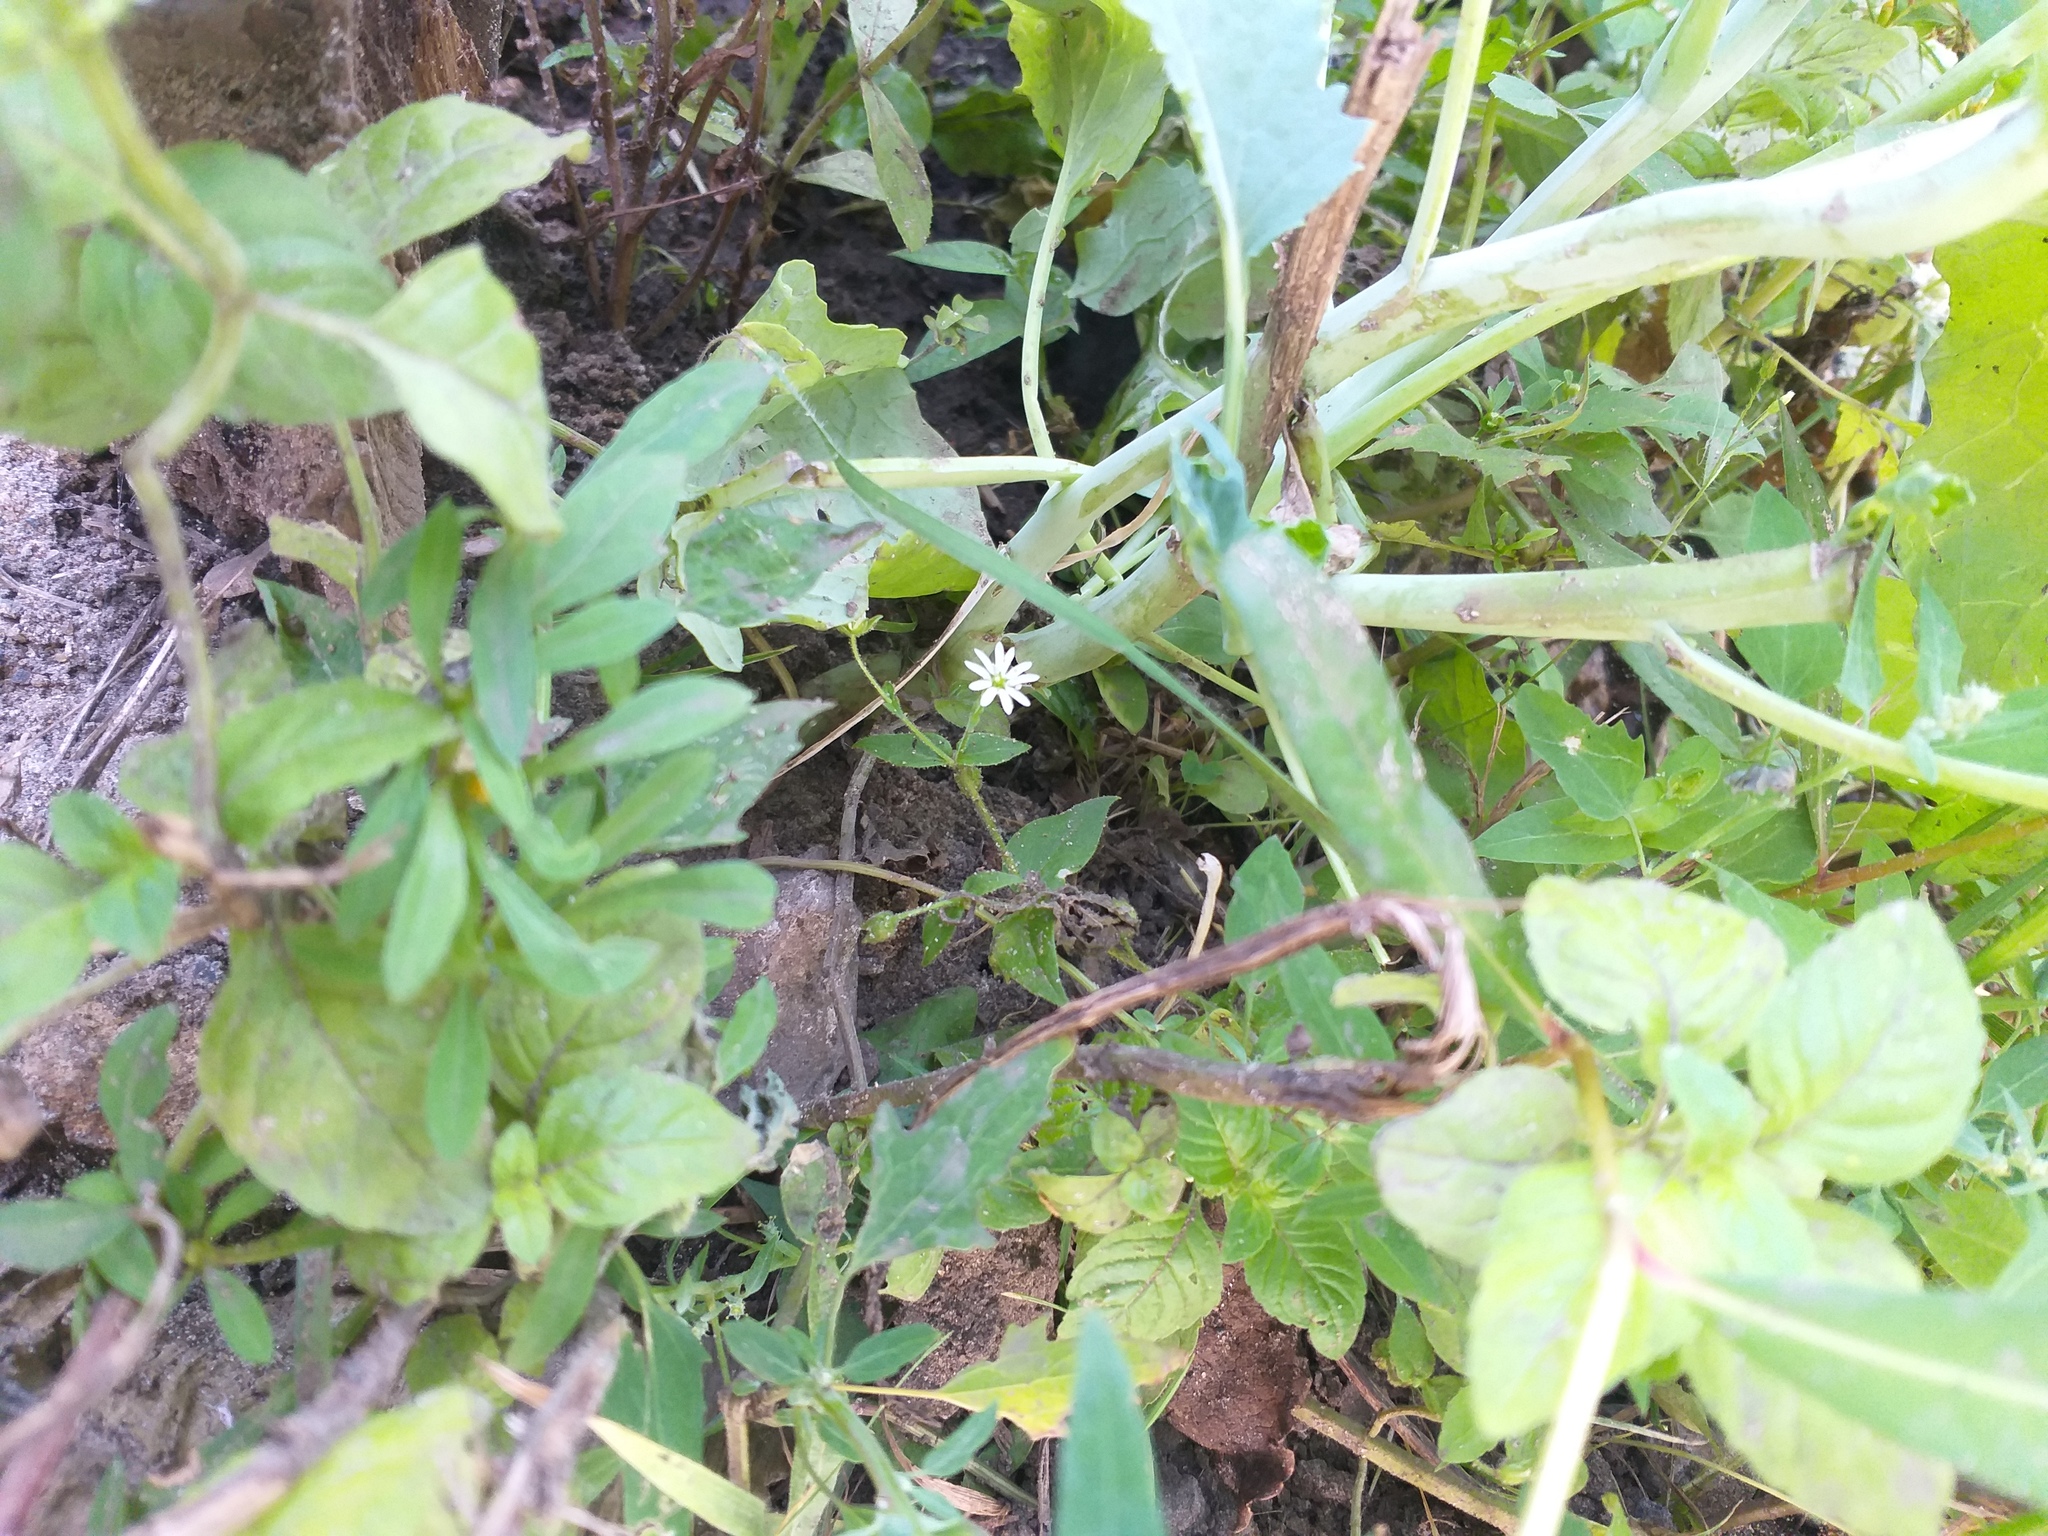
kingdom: Plantae
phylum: Tracheophyta
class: Magnoliopsida
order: Caryophyllales
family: Caryophyllaceae
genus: Stellaria
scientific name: Stellaria aquatica
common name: Water chickweed
